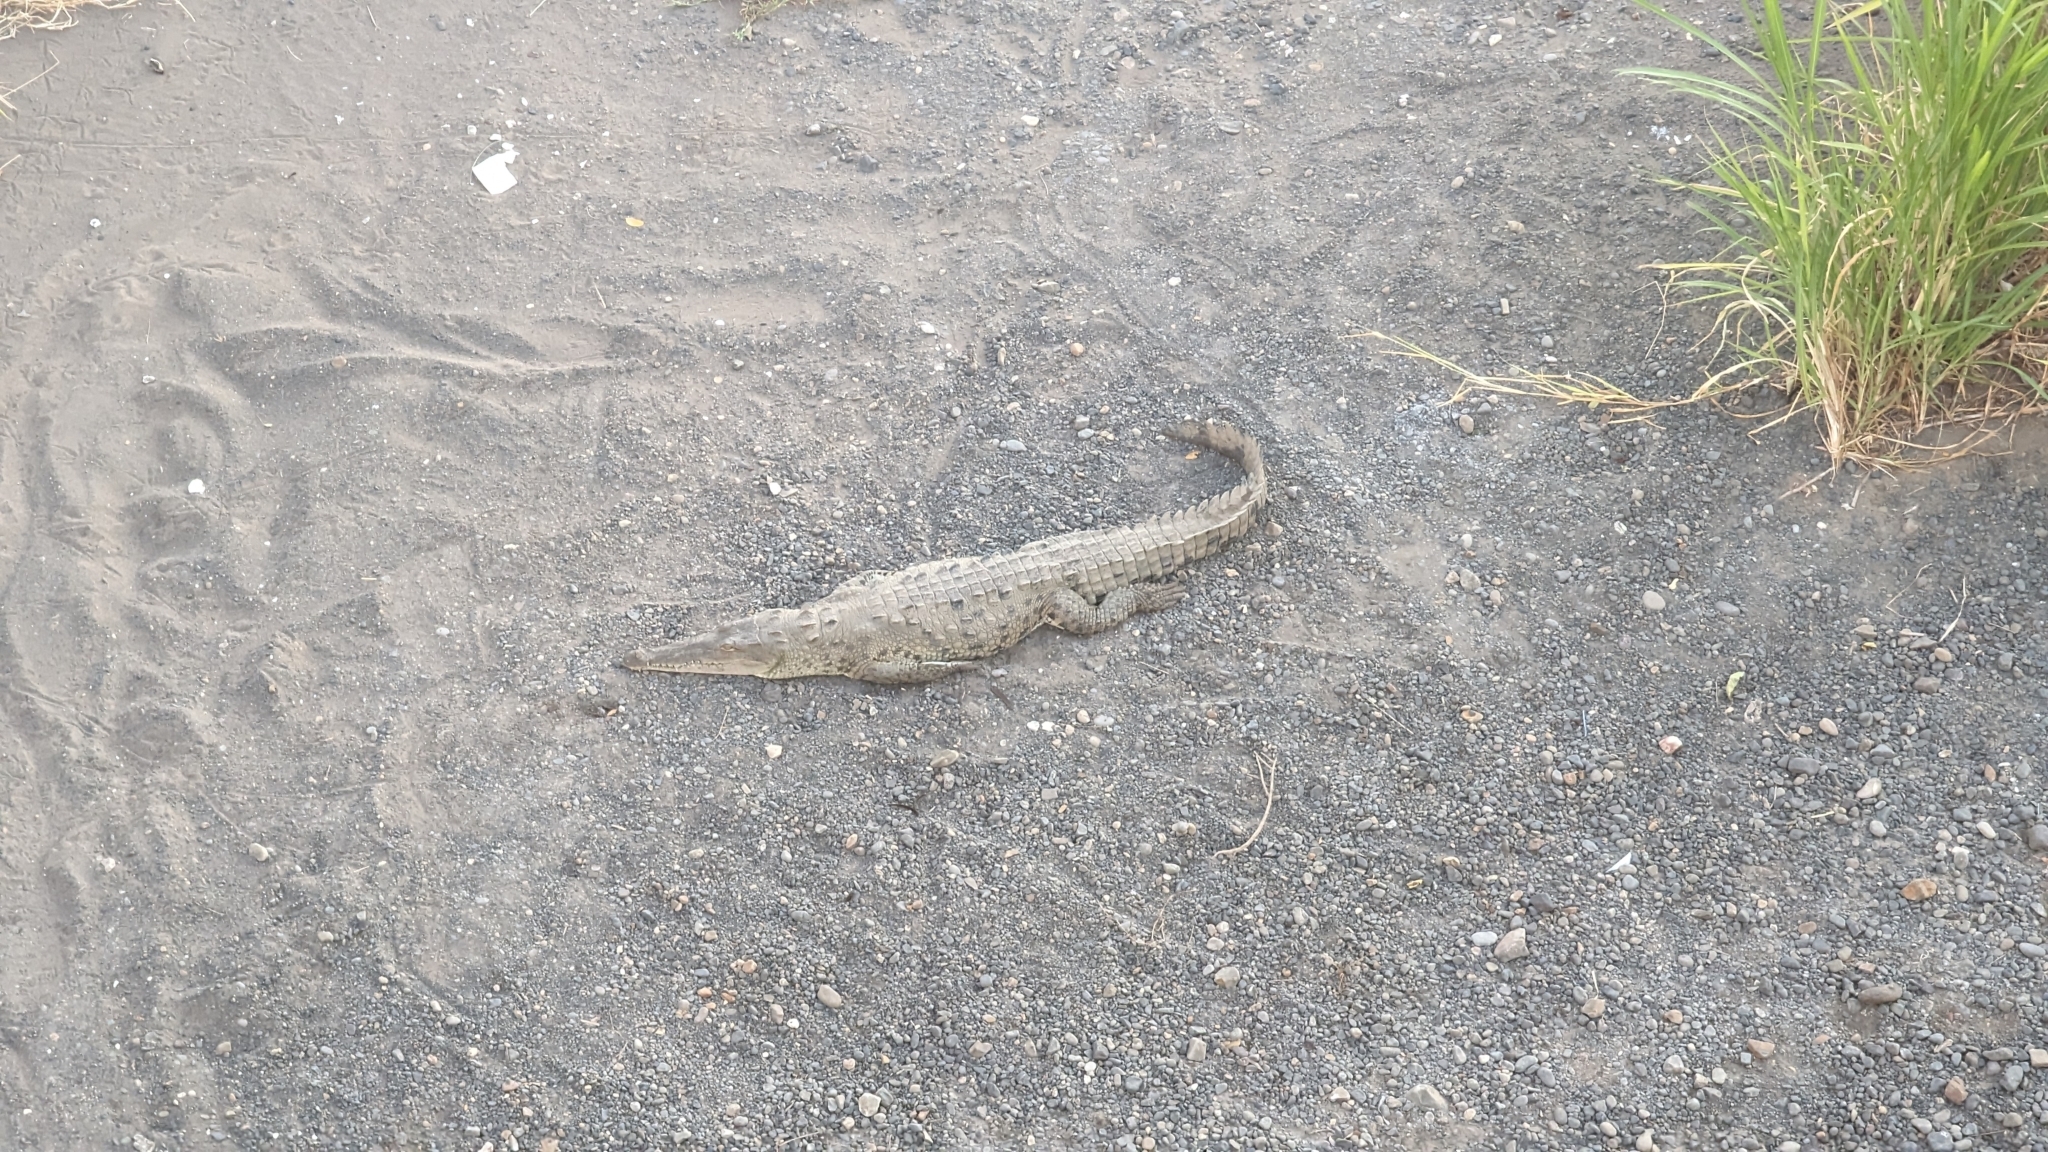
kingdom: Animalia
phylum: Chordata
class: Crocodylia
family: Crocodylidae
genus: Crocodylus
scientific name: Crocodylus acutus
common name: American crocodile
